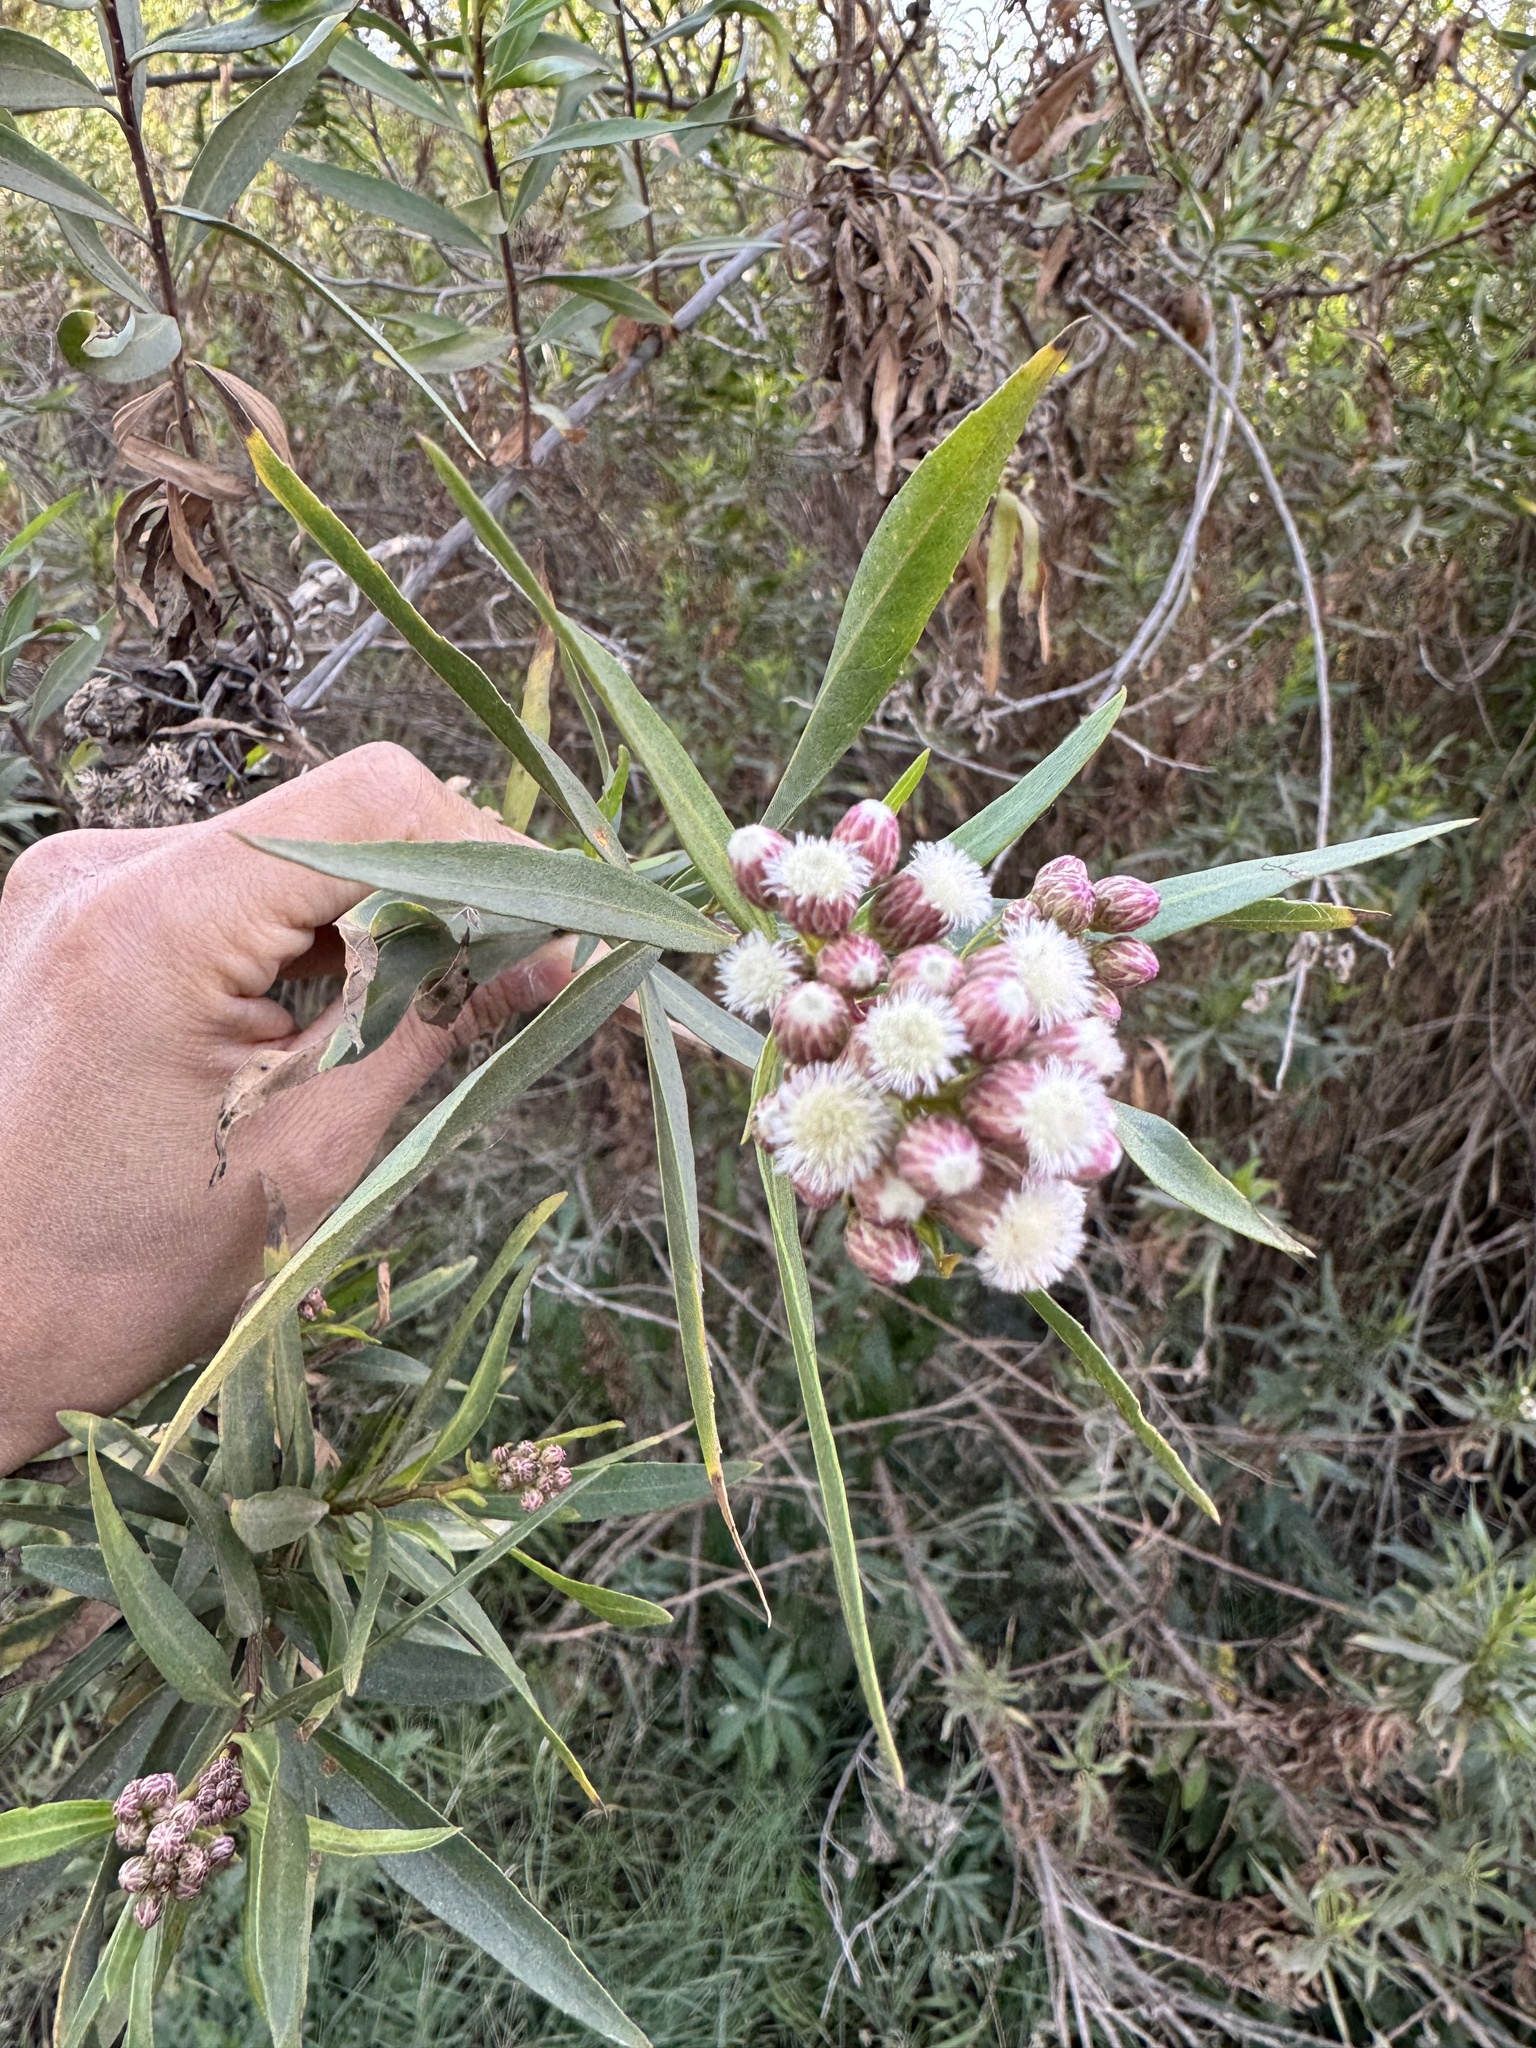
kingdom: Plantae
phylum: Tracheophyta
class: Magnoliopsida
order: Asterales
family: Asteraceae
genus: Baccharis
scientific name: Baccharis salicifolia
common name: Sticky baccharis
